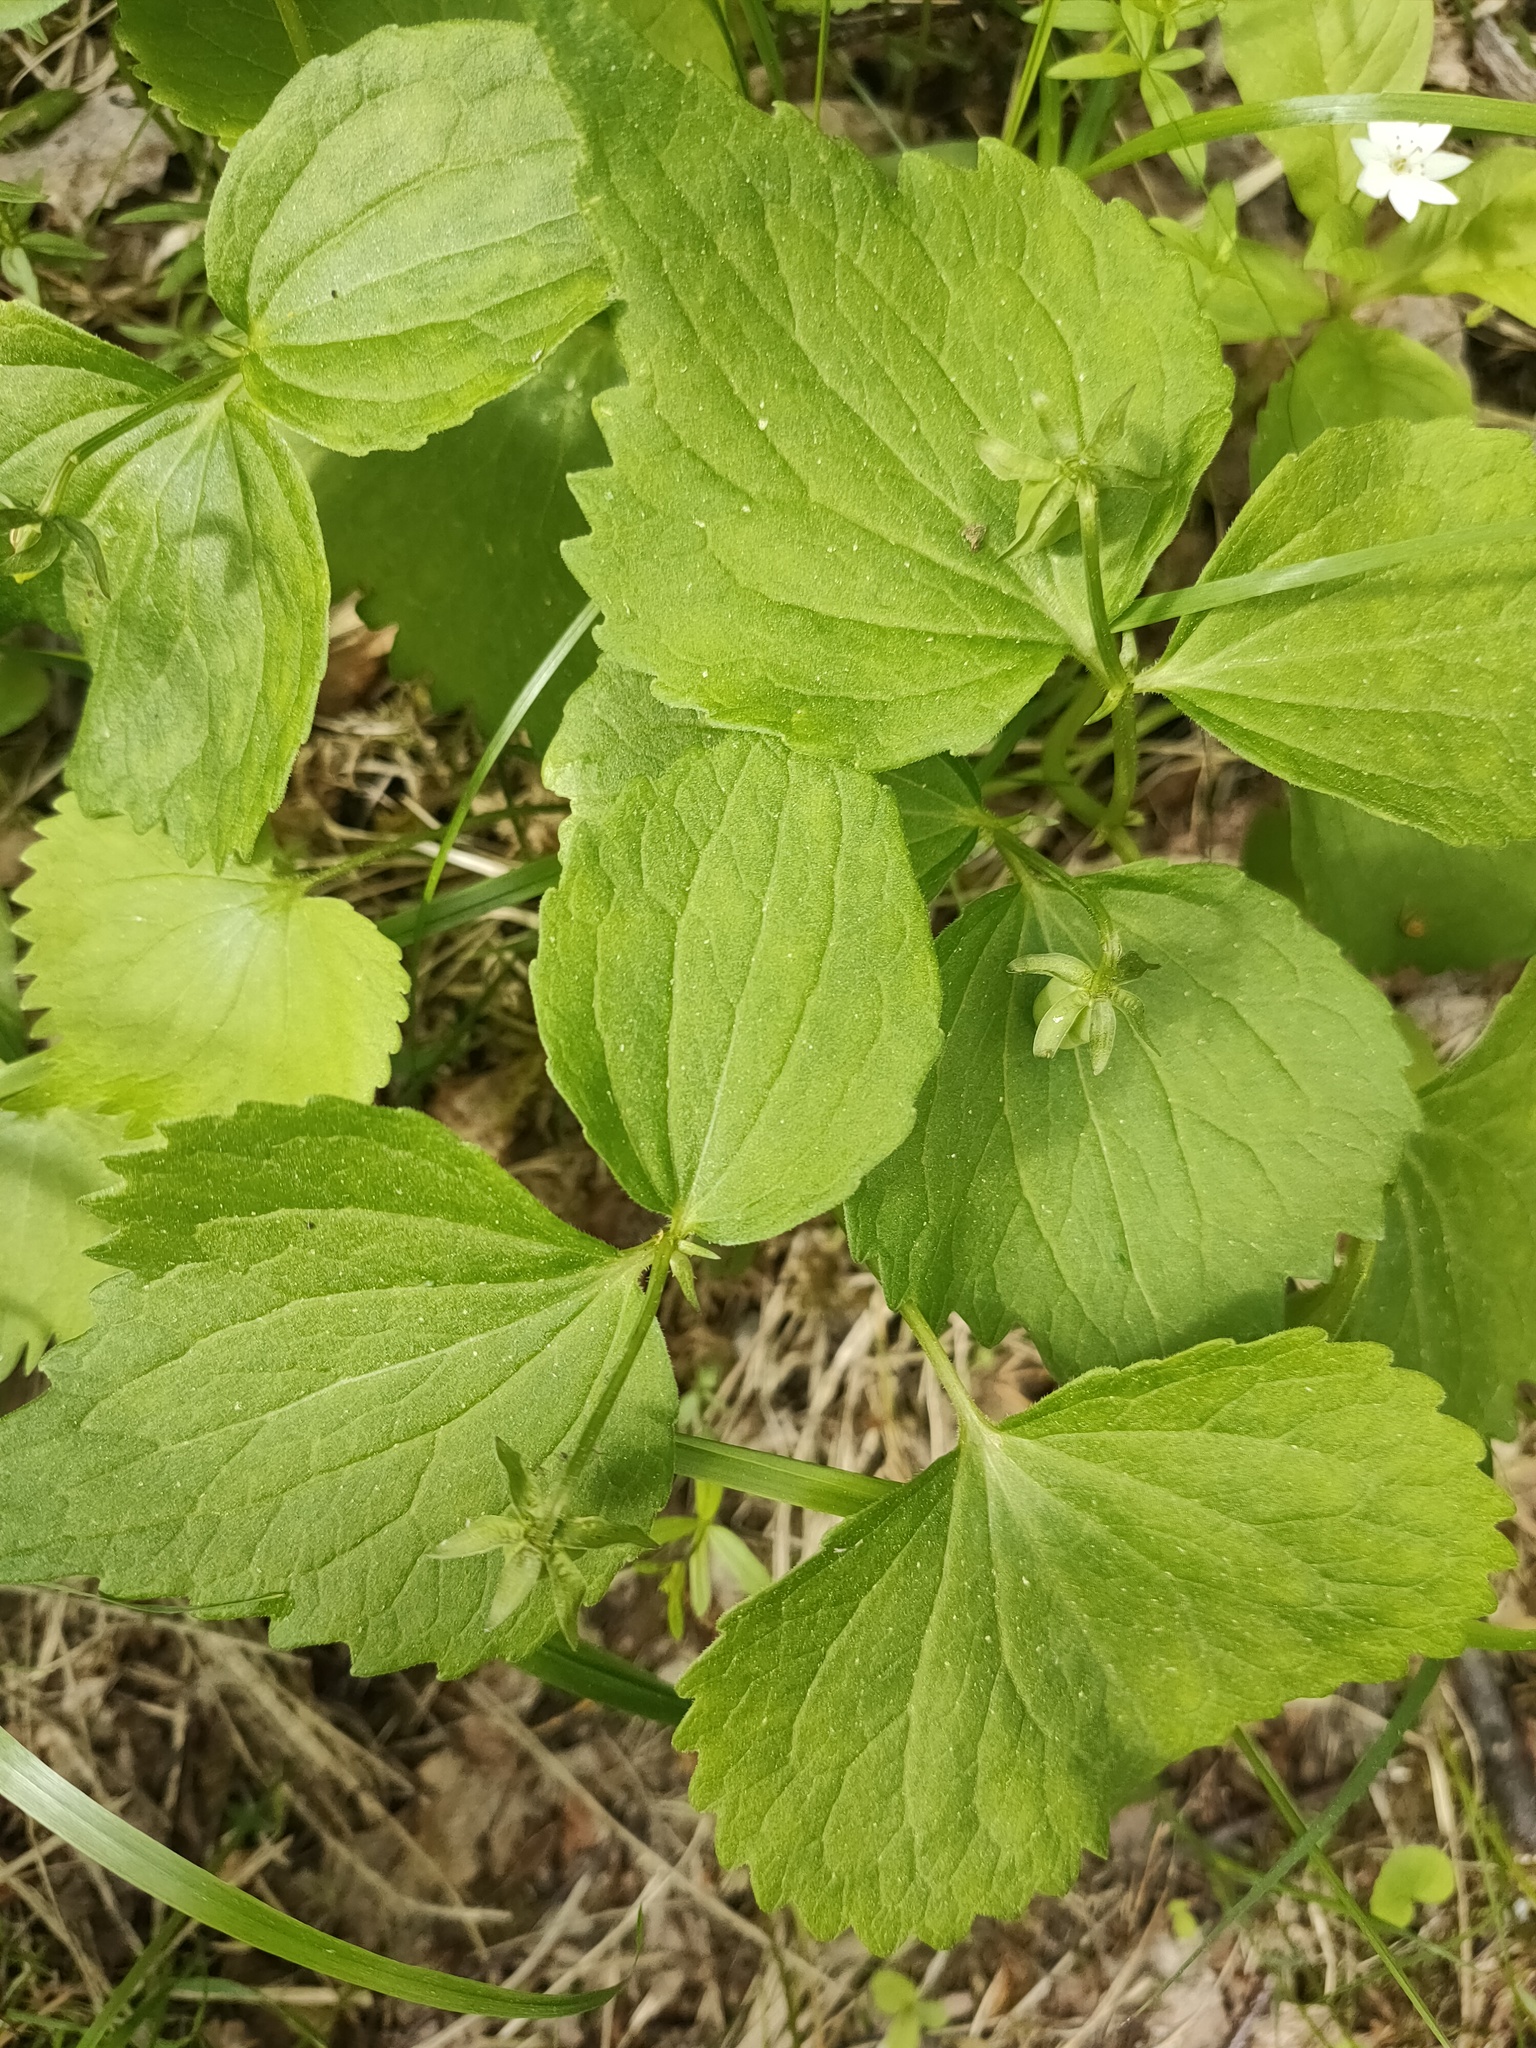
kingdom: Plantae
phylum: Tracheophyta
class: Magnoliopsida
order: Malpighiales
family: Violaceae
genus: Viola
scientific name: Viola uniflora
